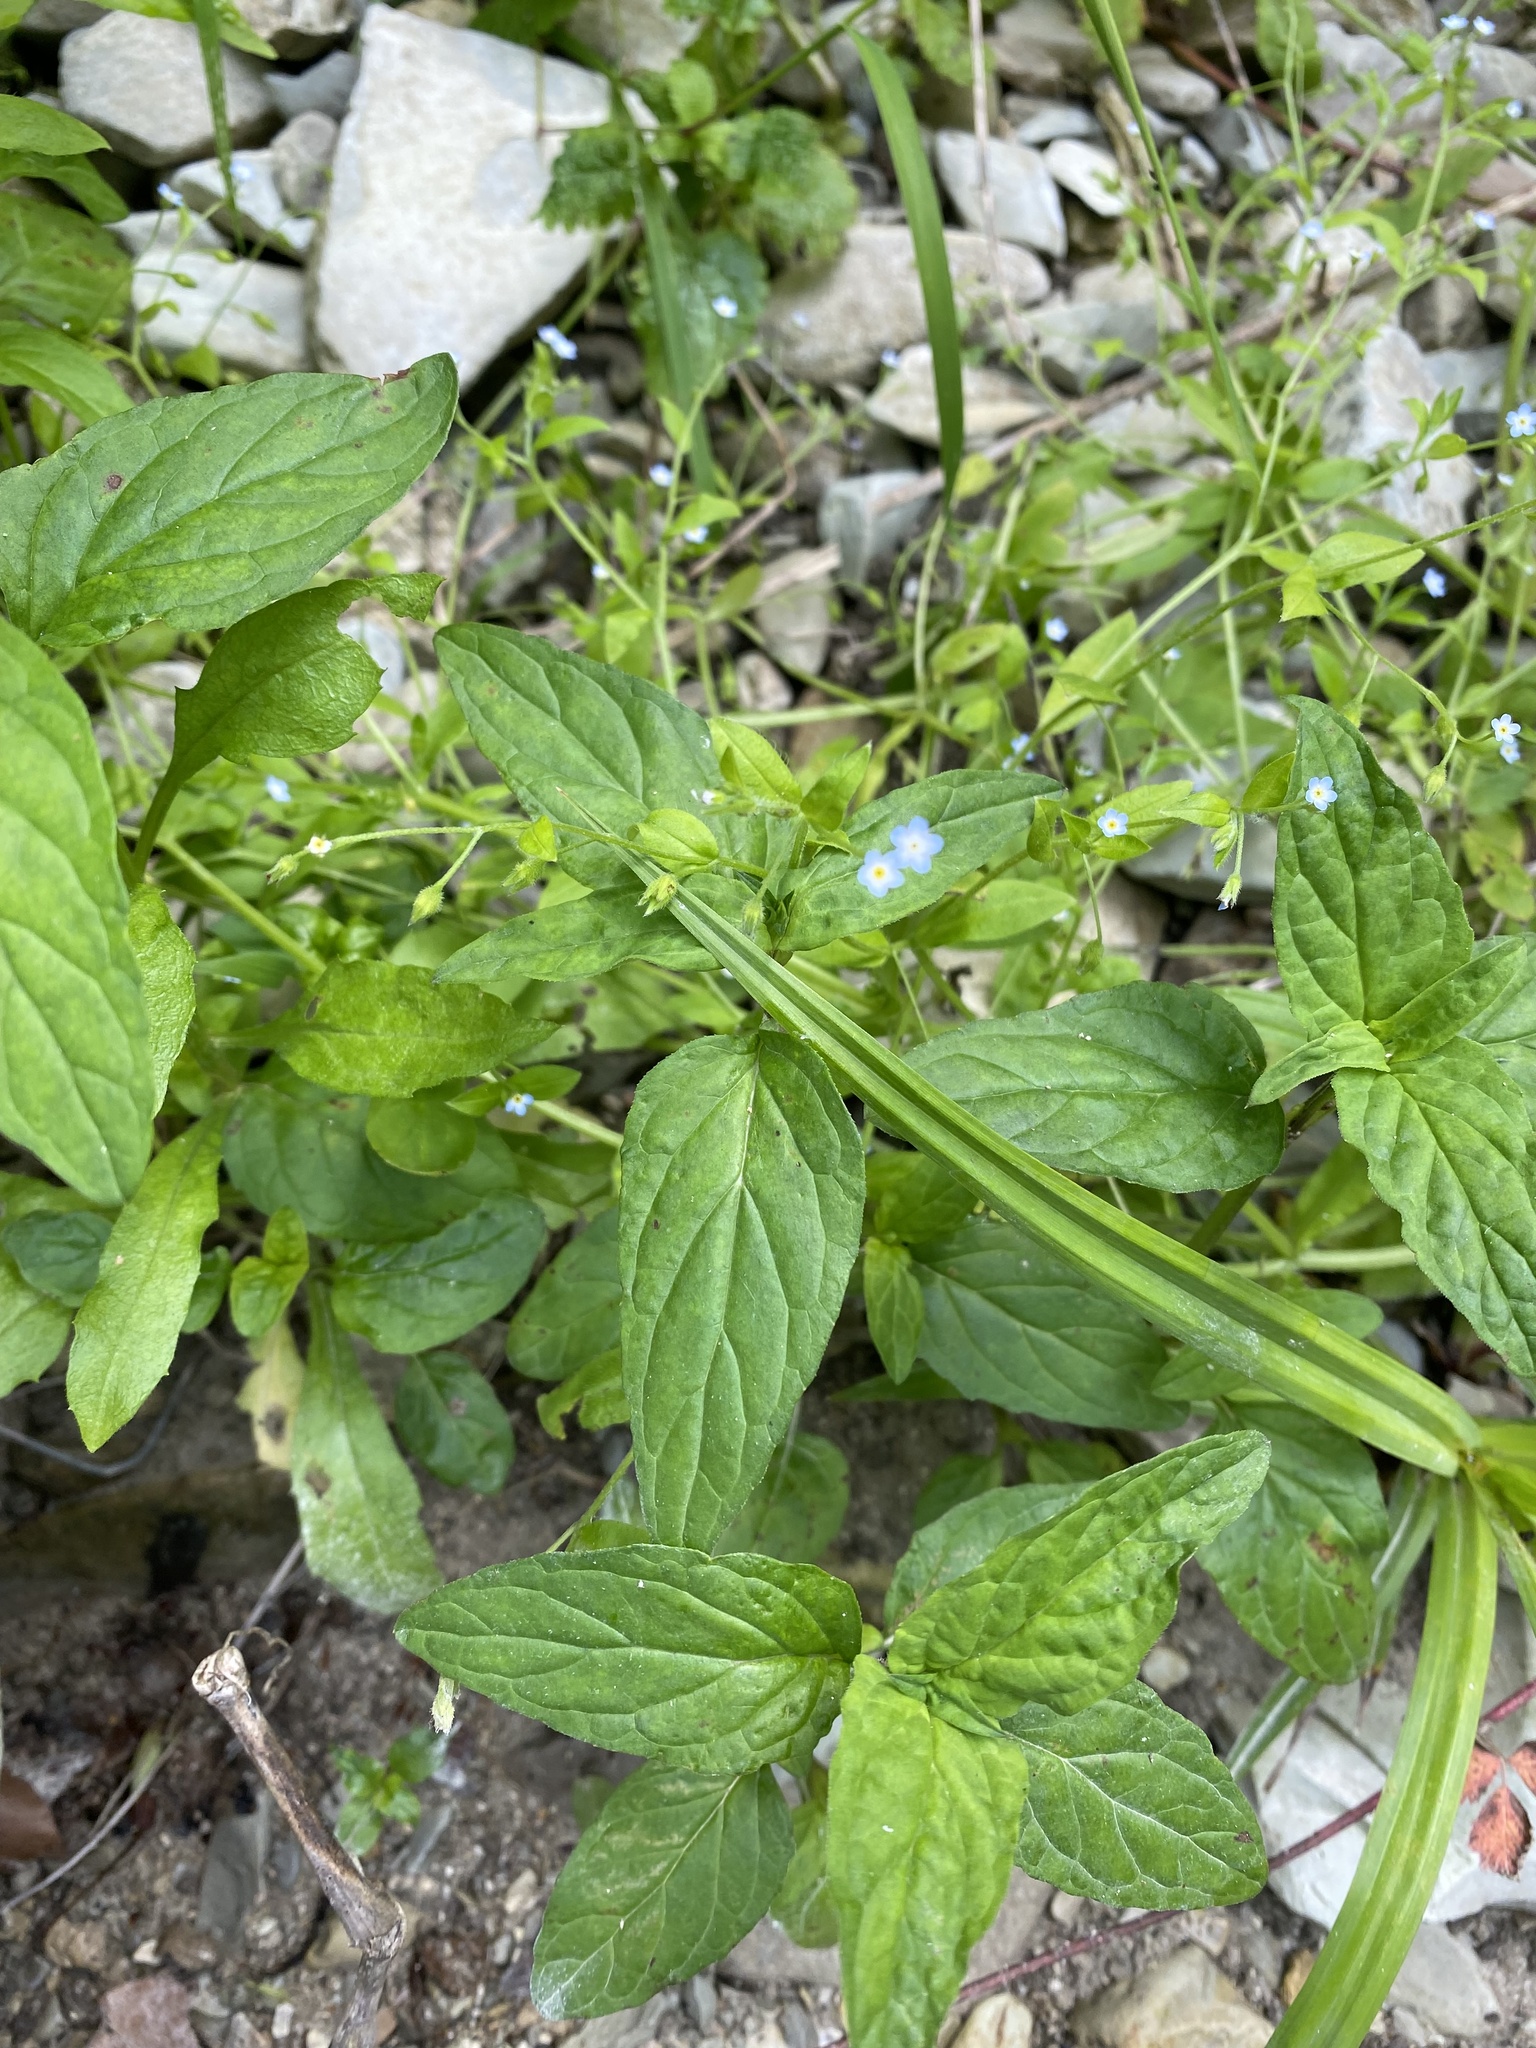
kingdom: Plantae
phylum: Tracheophyta
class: Magnoliopsida
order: Boraginales
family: Boraginaceae
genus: Myosotis
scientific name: Myosotis sparsiflora
